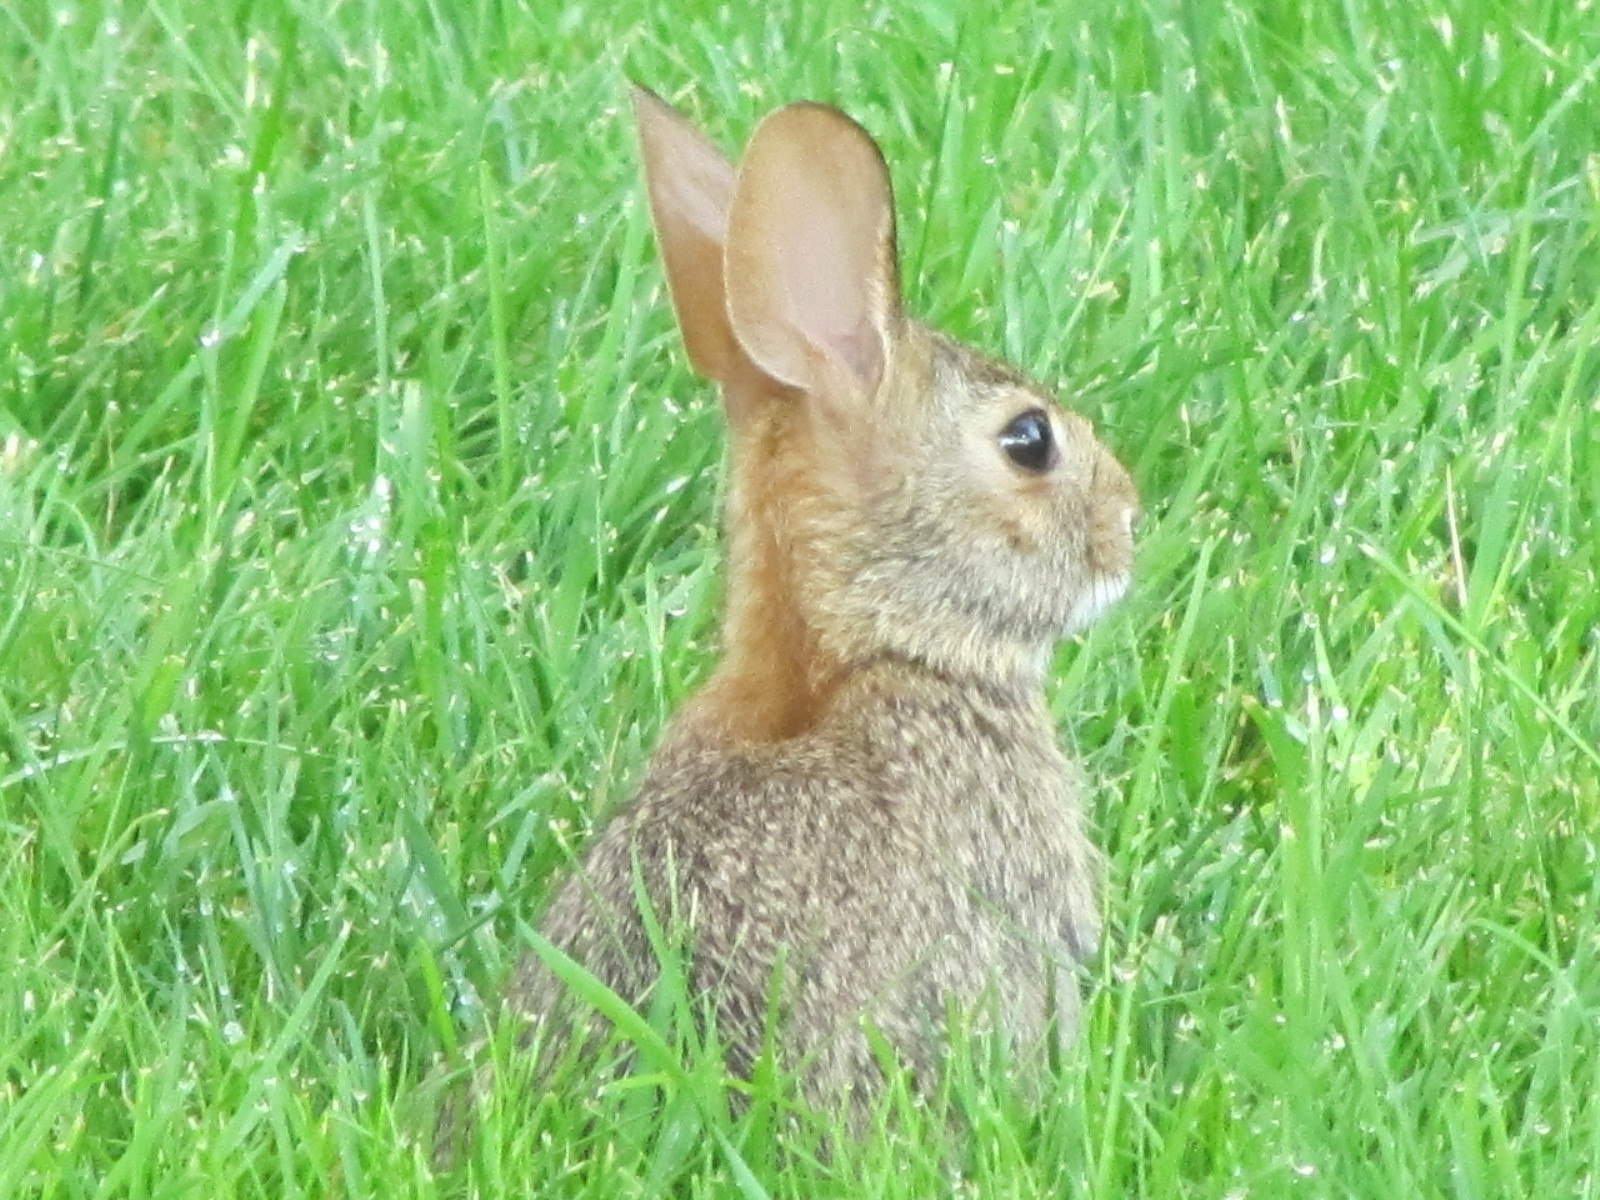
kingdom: Animalia
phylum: Chordata
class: Mammalia
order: Lagomorpha
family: Leporidae
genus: Sylvilagus
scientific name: Sylvilagus floridanus
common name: Eastern cottontail
